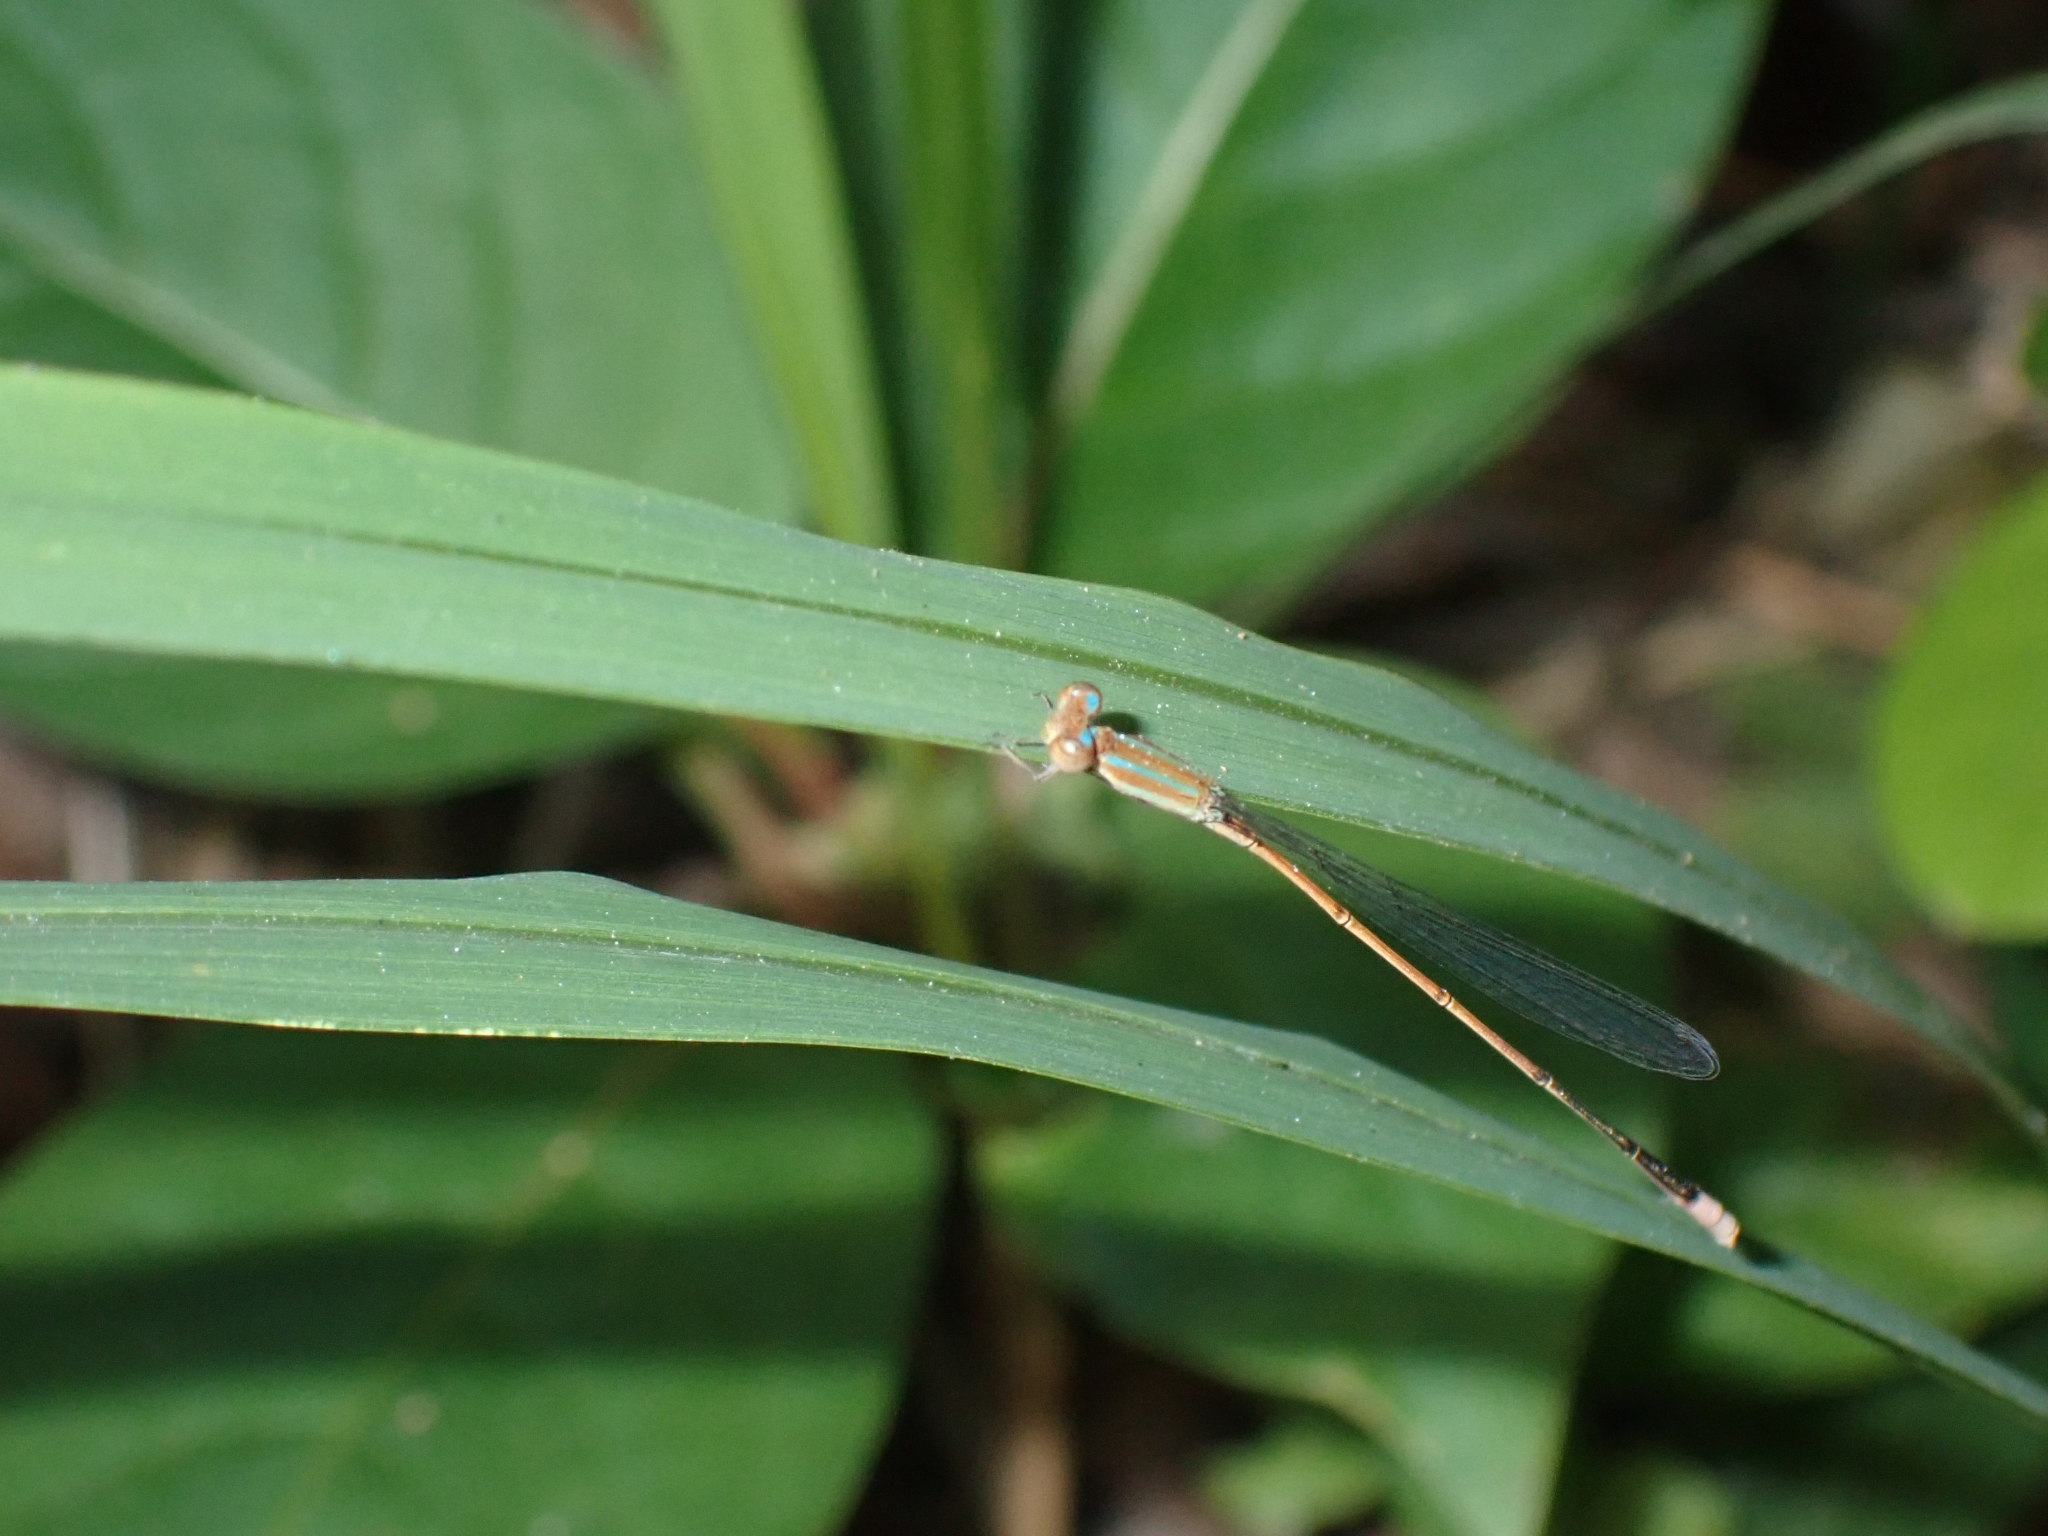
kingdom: Animalia
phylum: Arthropoda
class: Insecta
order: Odonata
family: Coenagrionidae
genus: Aciagrion
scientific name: Aciagrion pallidum
